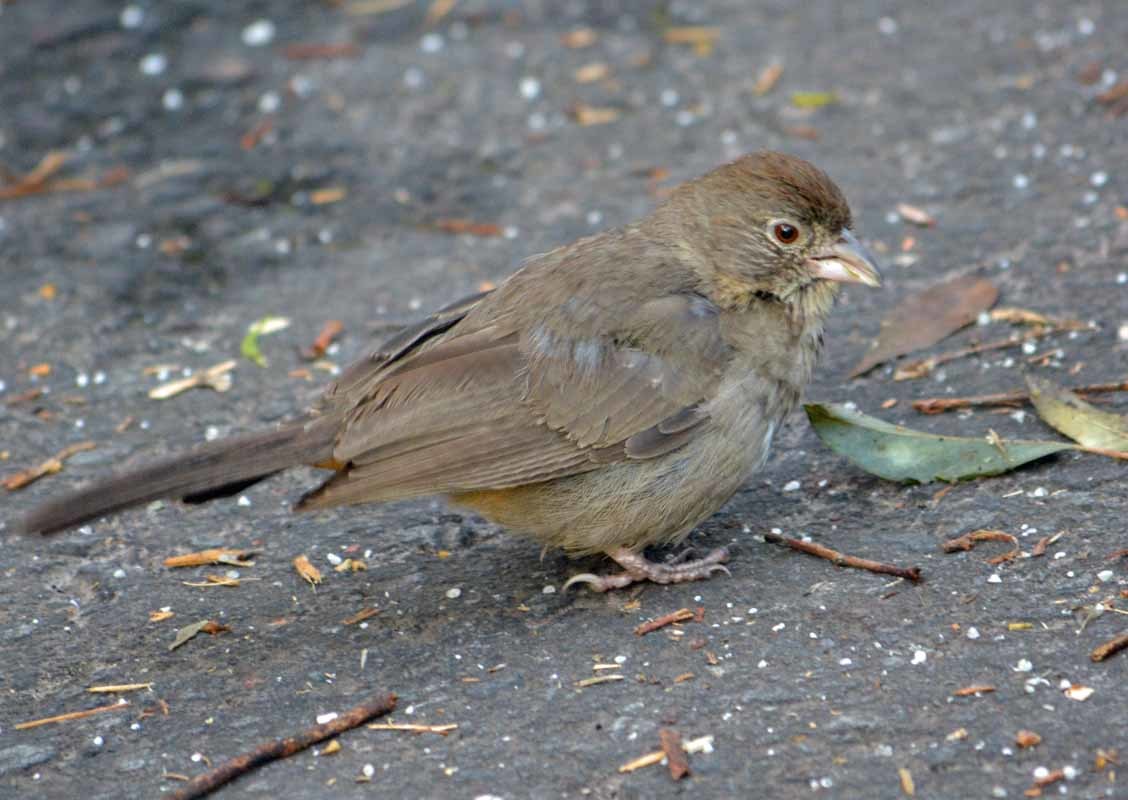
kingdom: Animalia
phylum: Chordata
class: Aves
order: Passeriformes
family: Passerellidae
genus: Melozone
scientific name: Melozone fusca
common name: Canyon towhee
